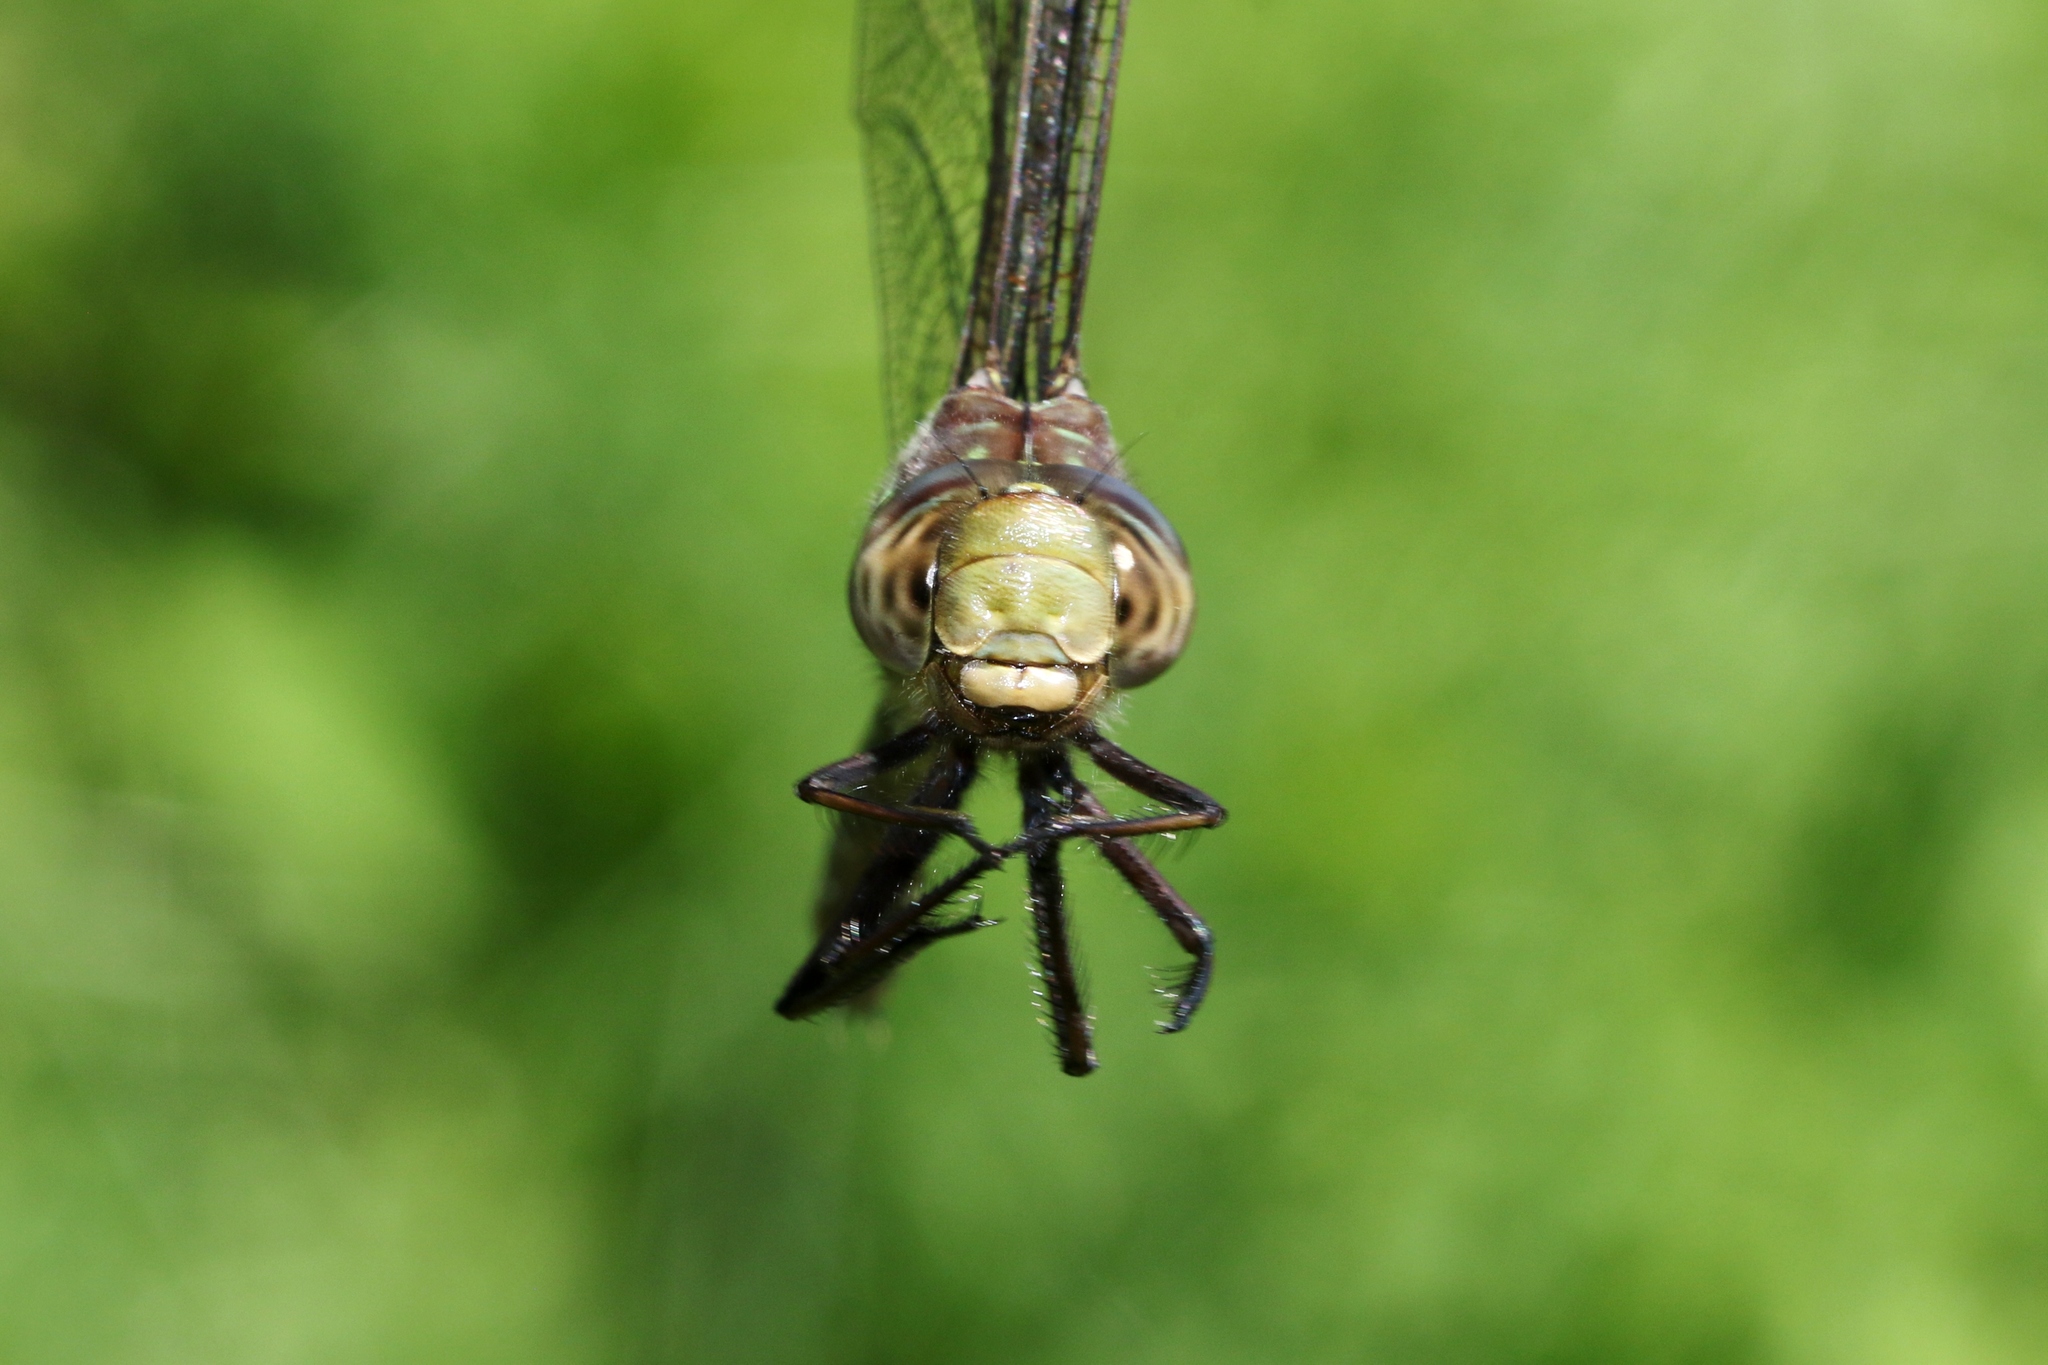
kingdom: Animalia
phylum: Arthropoda
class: Insecta
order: Odonata
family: Aeshnidae
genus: Aeshna
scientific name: Aeshna umbrosa
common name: Shadow darner
